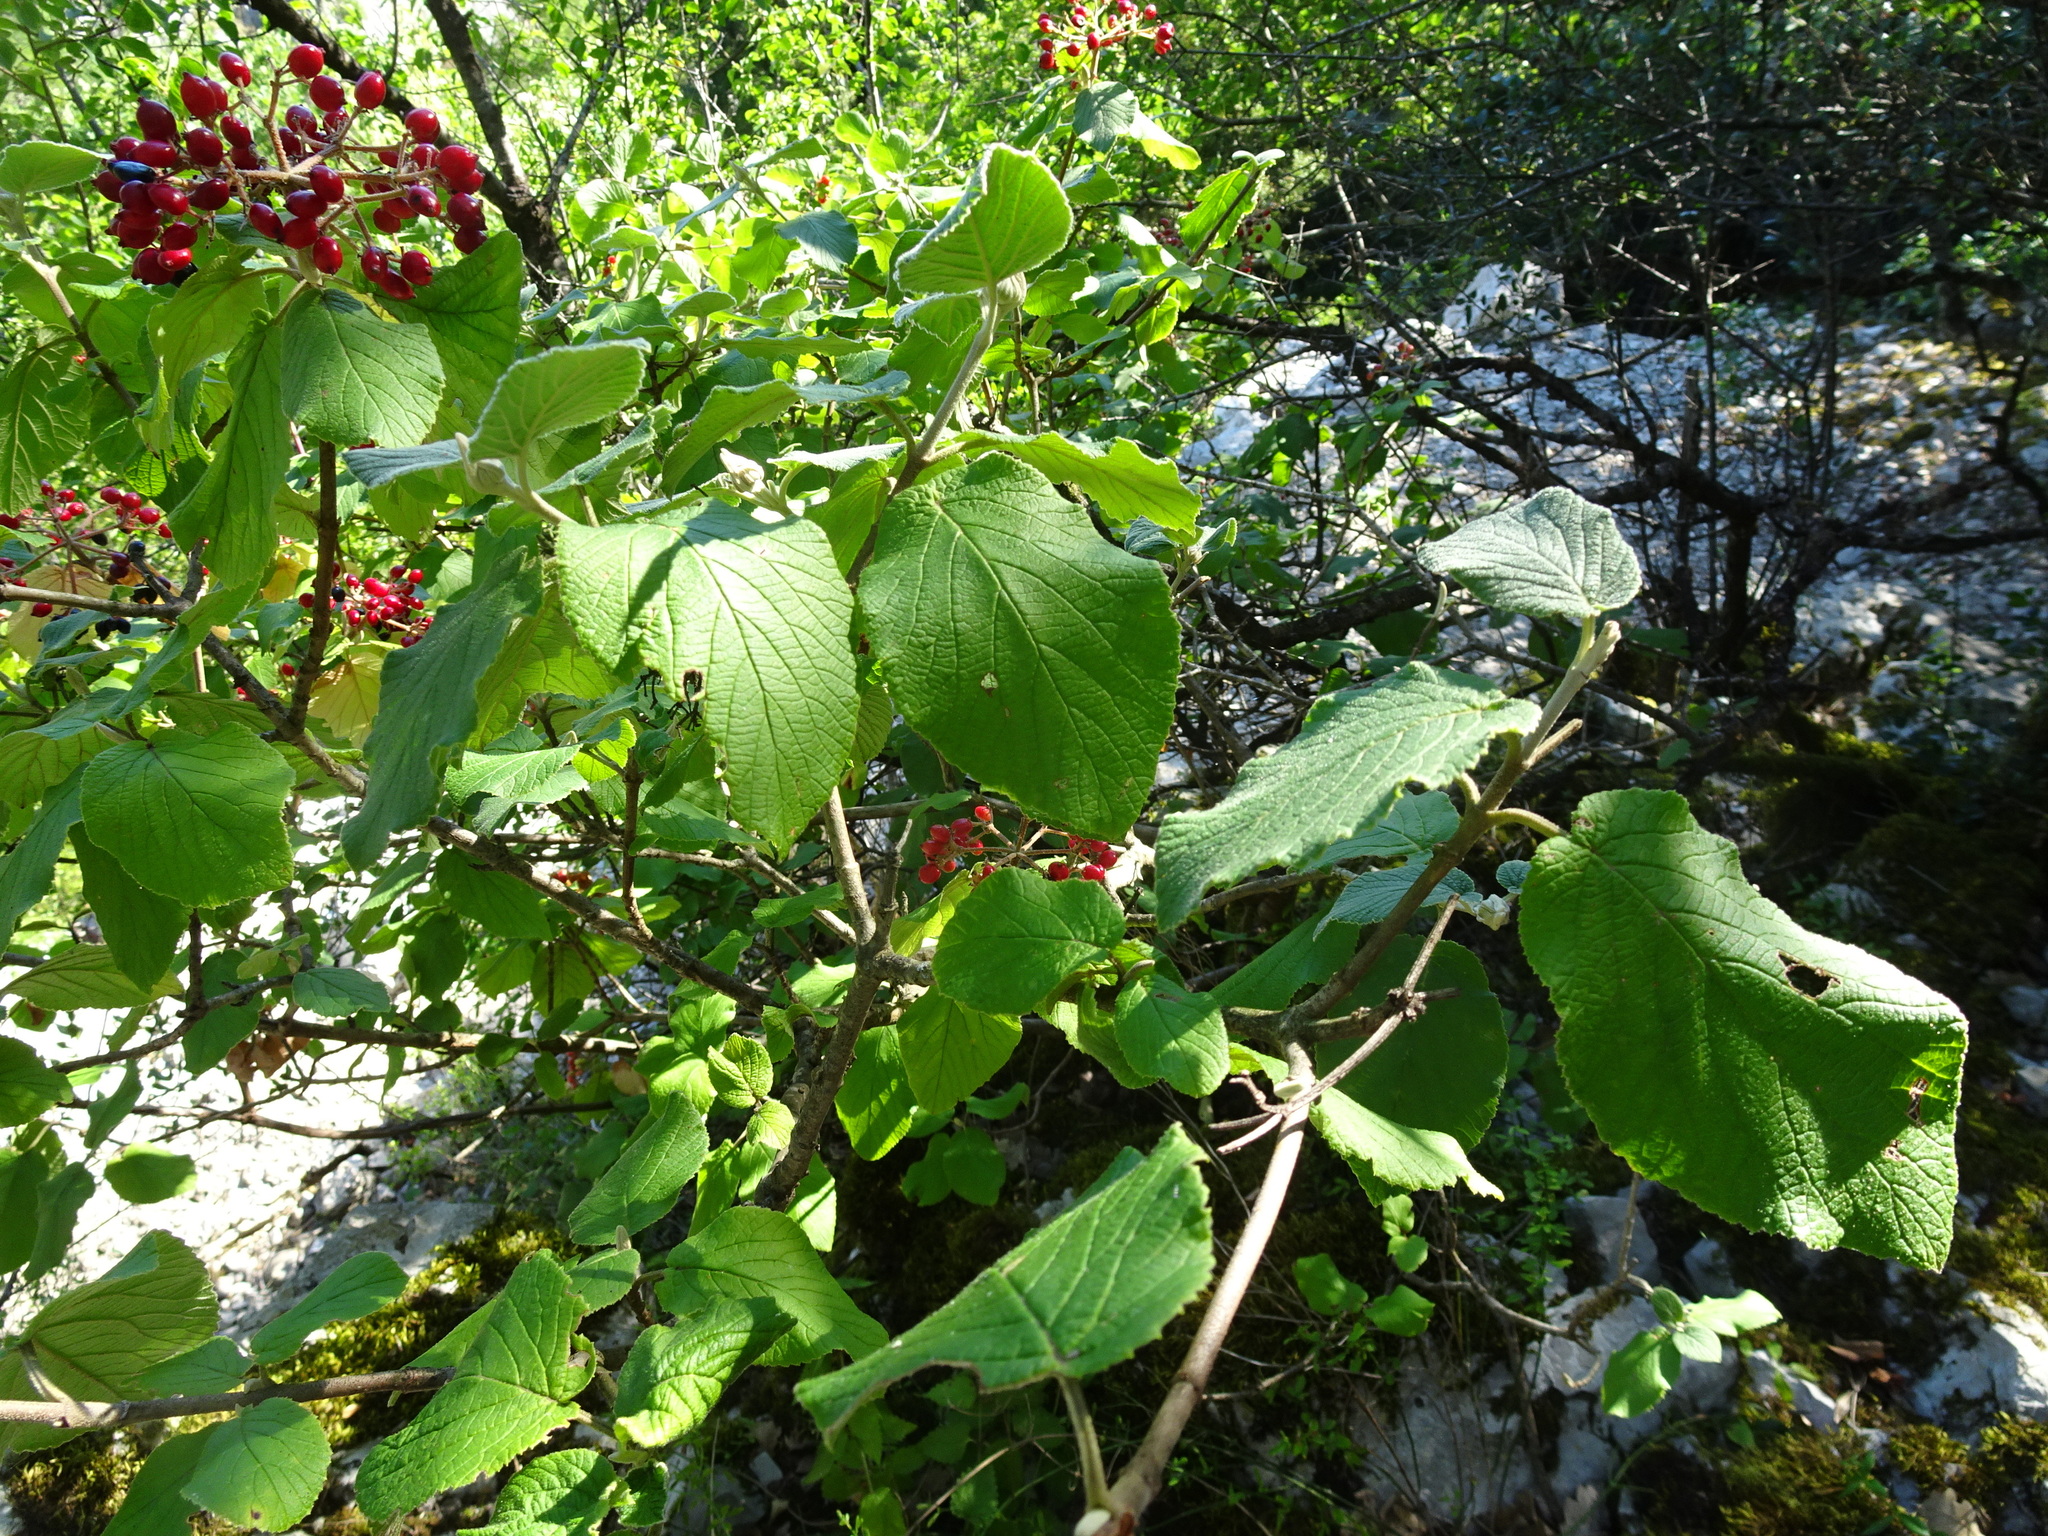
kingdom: Plantae
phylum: Tracheophyta
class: Magnoliopsida
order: Dipsacales
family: Viburnaceae
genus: Viburnum
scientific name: Viburnum lantana
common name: Wayfaring tree
